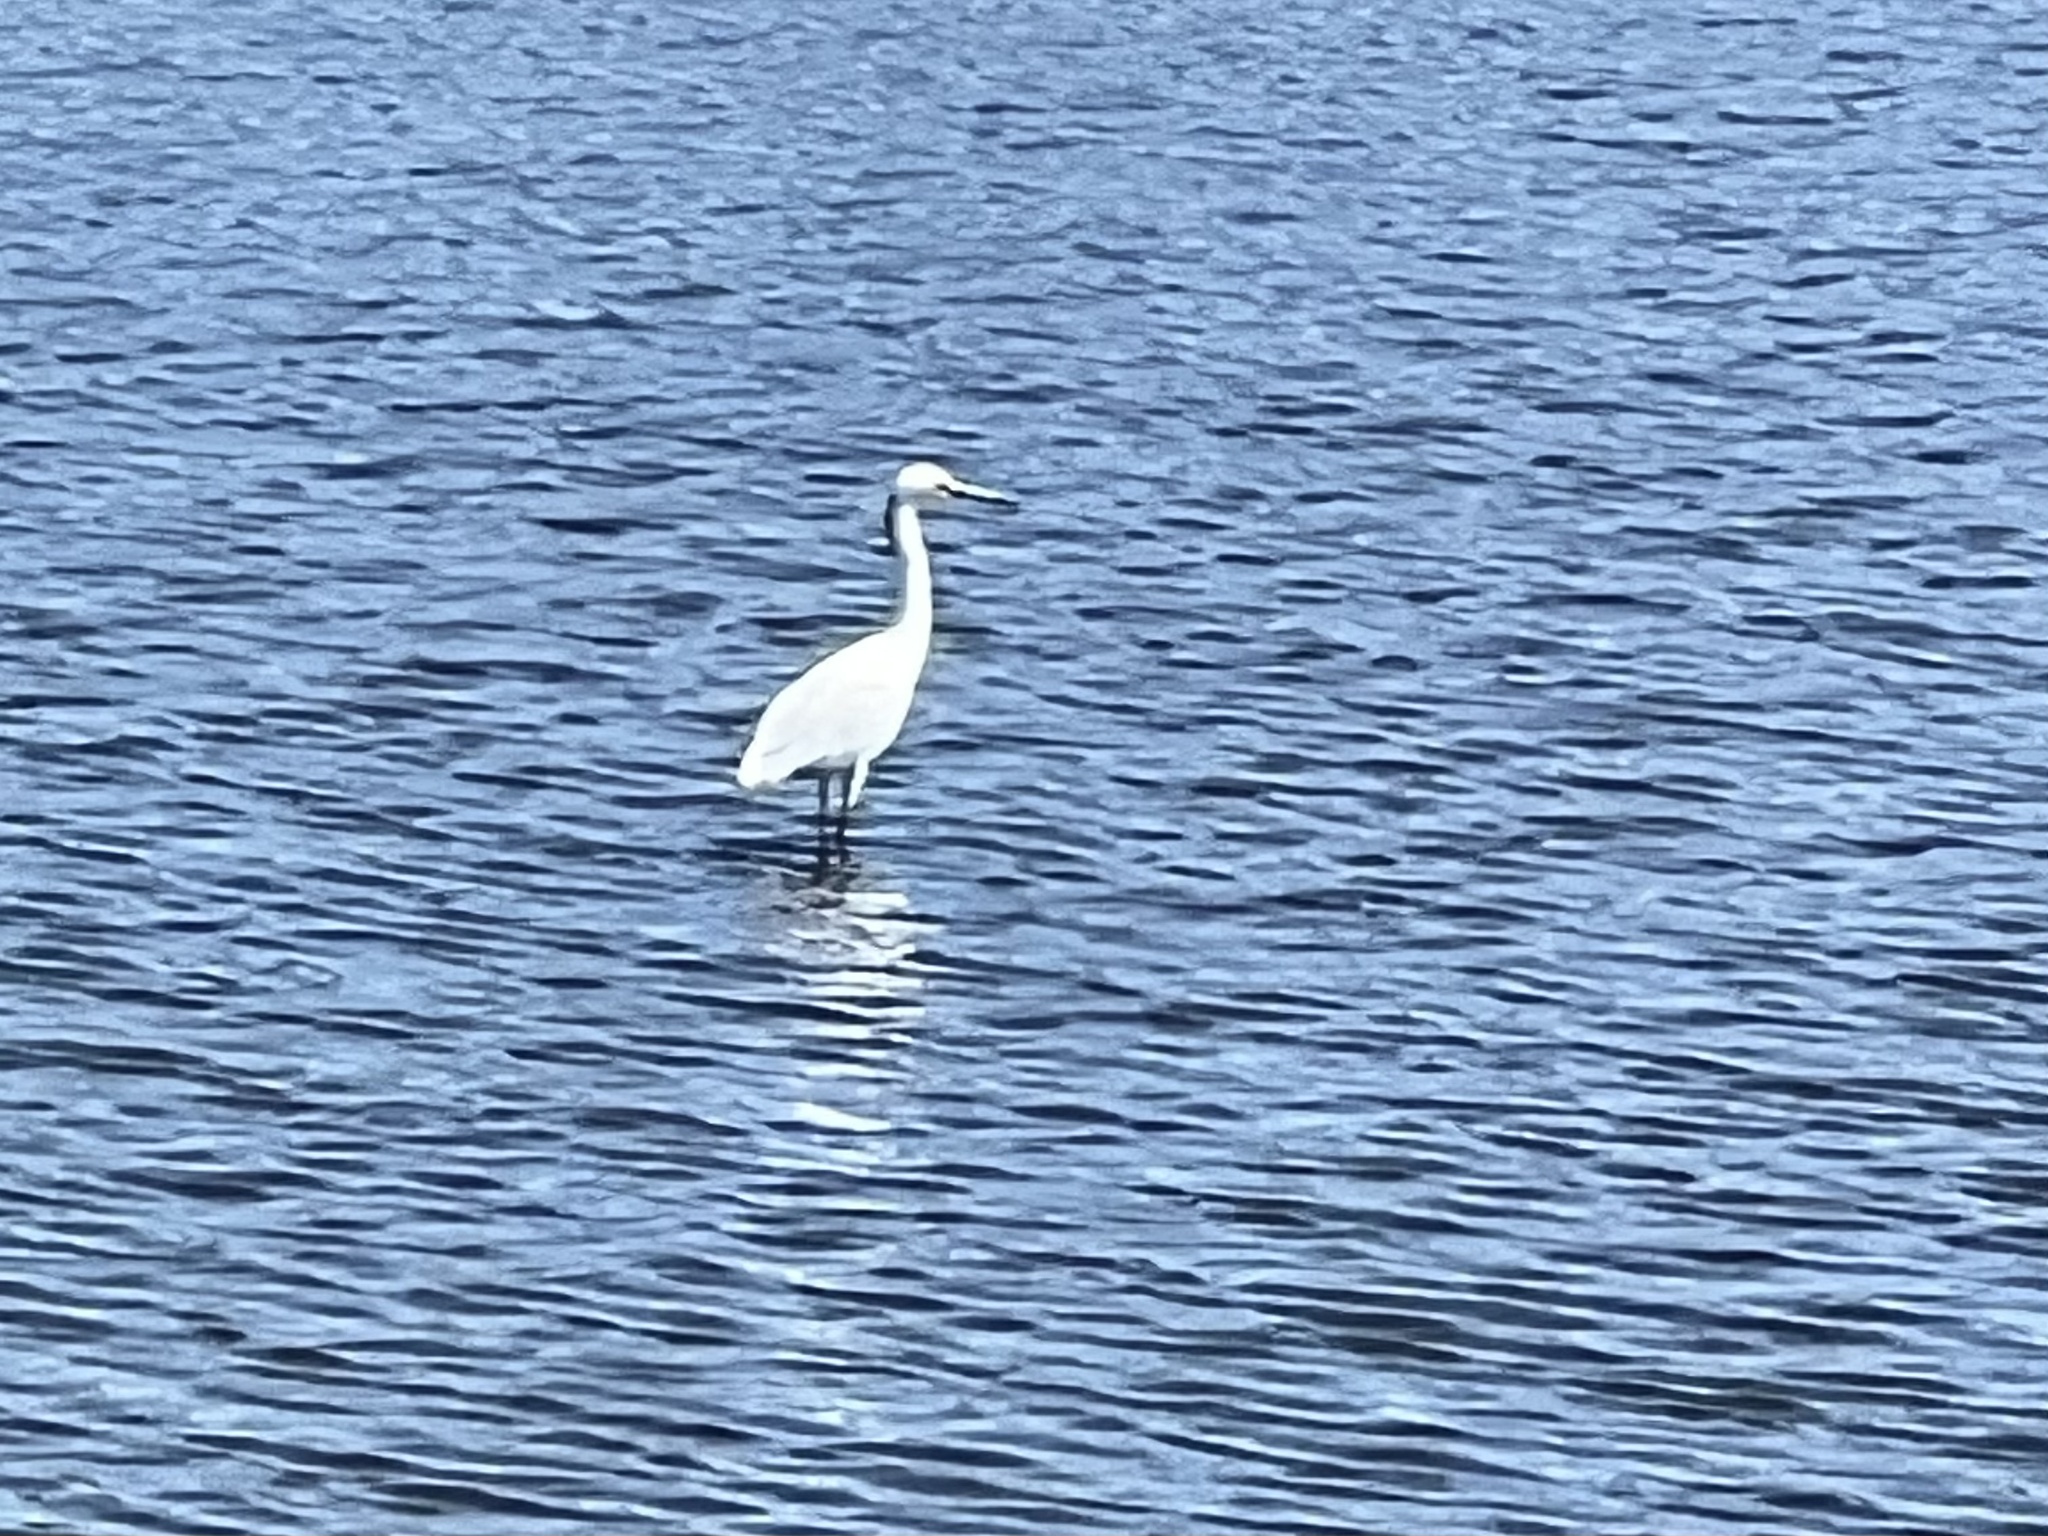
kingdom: Animalia
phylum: Chordata
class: Aves
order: Pelecaniformes
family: Ardeidae
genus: Egretta
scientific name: Egretta thula
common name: Snowy egret
